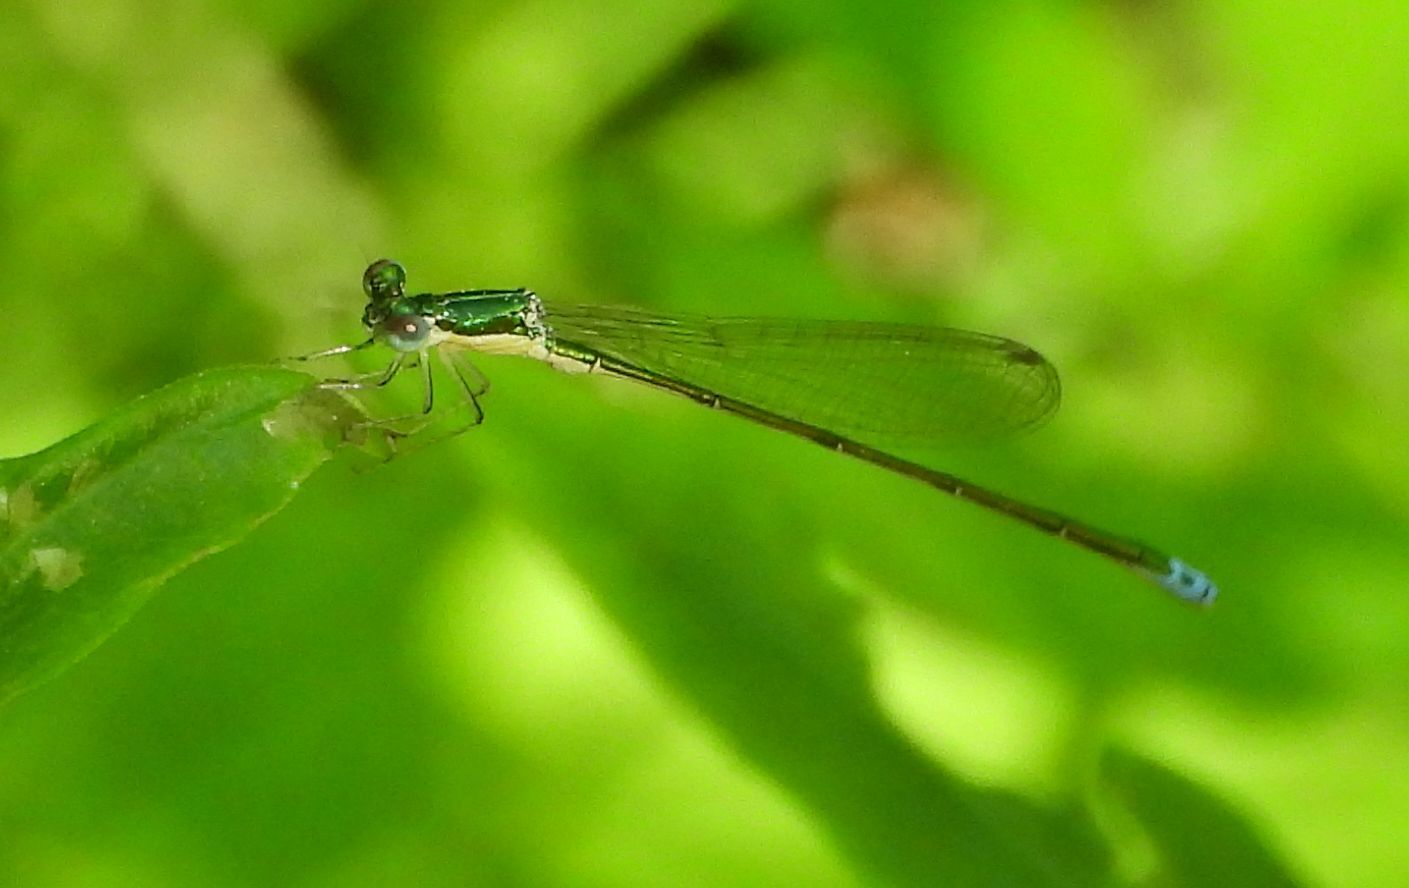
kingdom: Animalia
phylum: Arthropoda
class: Insecta
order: Odonata
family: Coenagrionidae
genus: Nehalennia
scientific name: Nehalennia irene
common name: Sedge sprite
